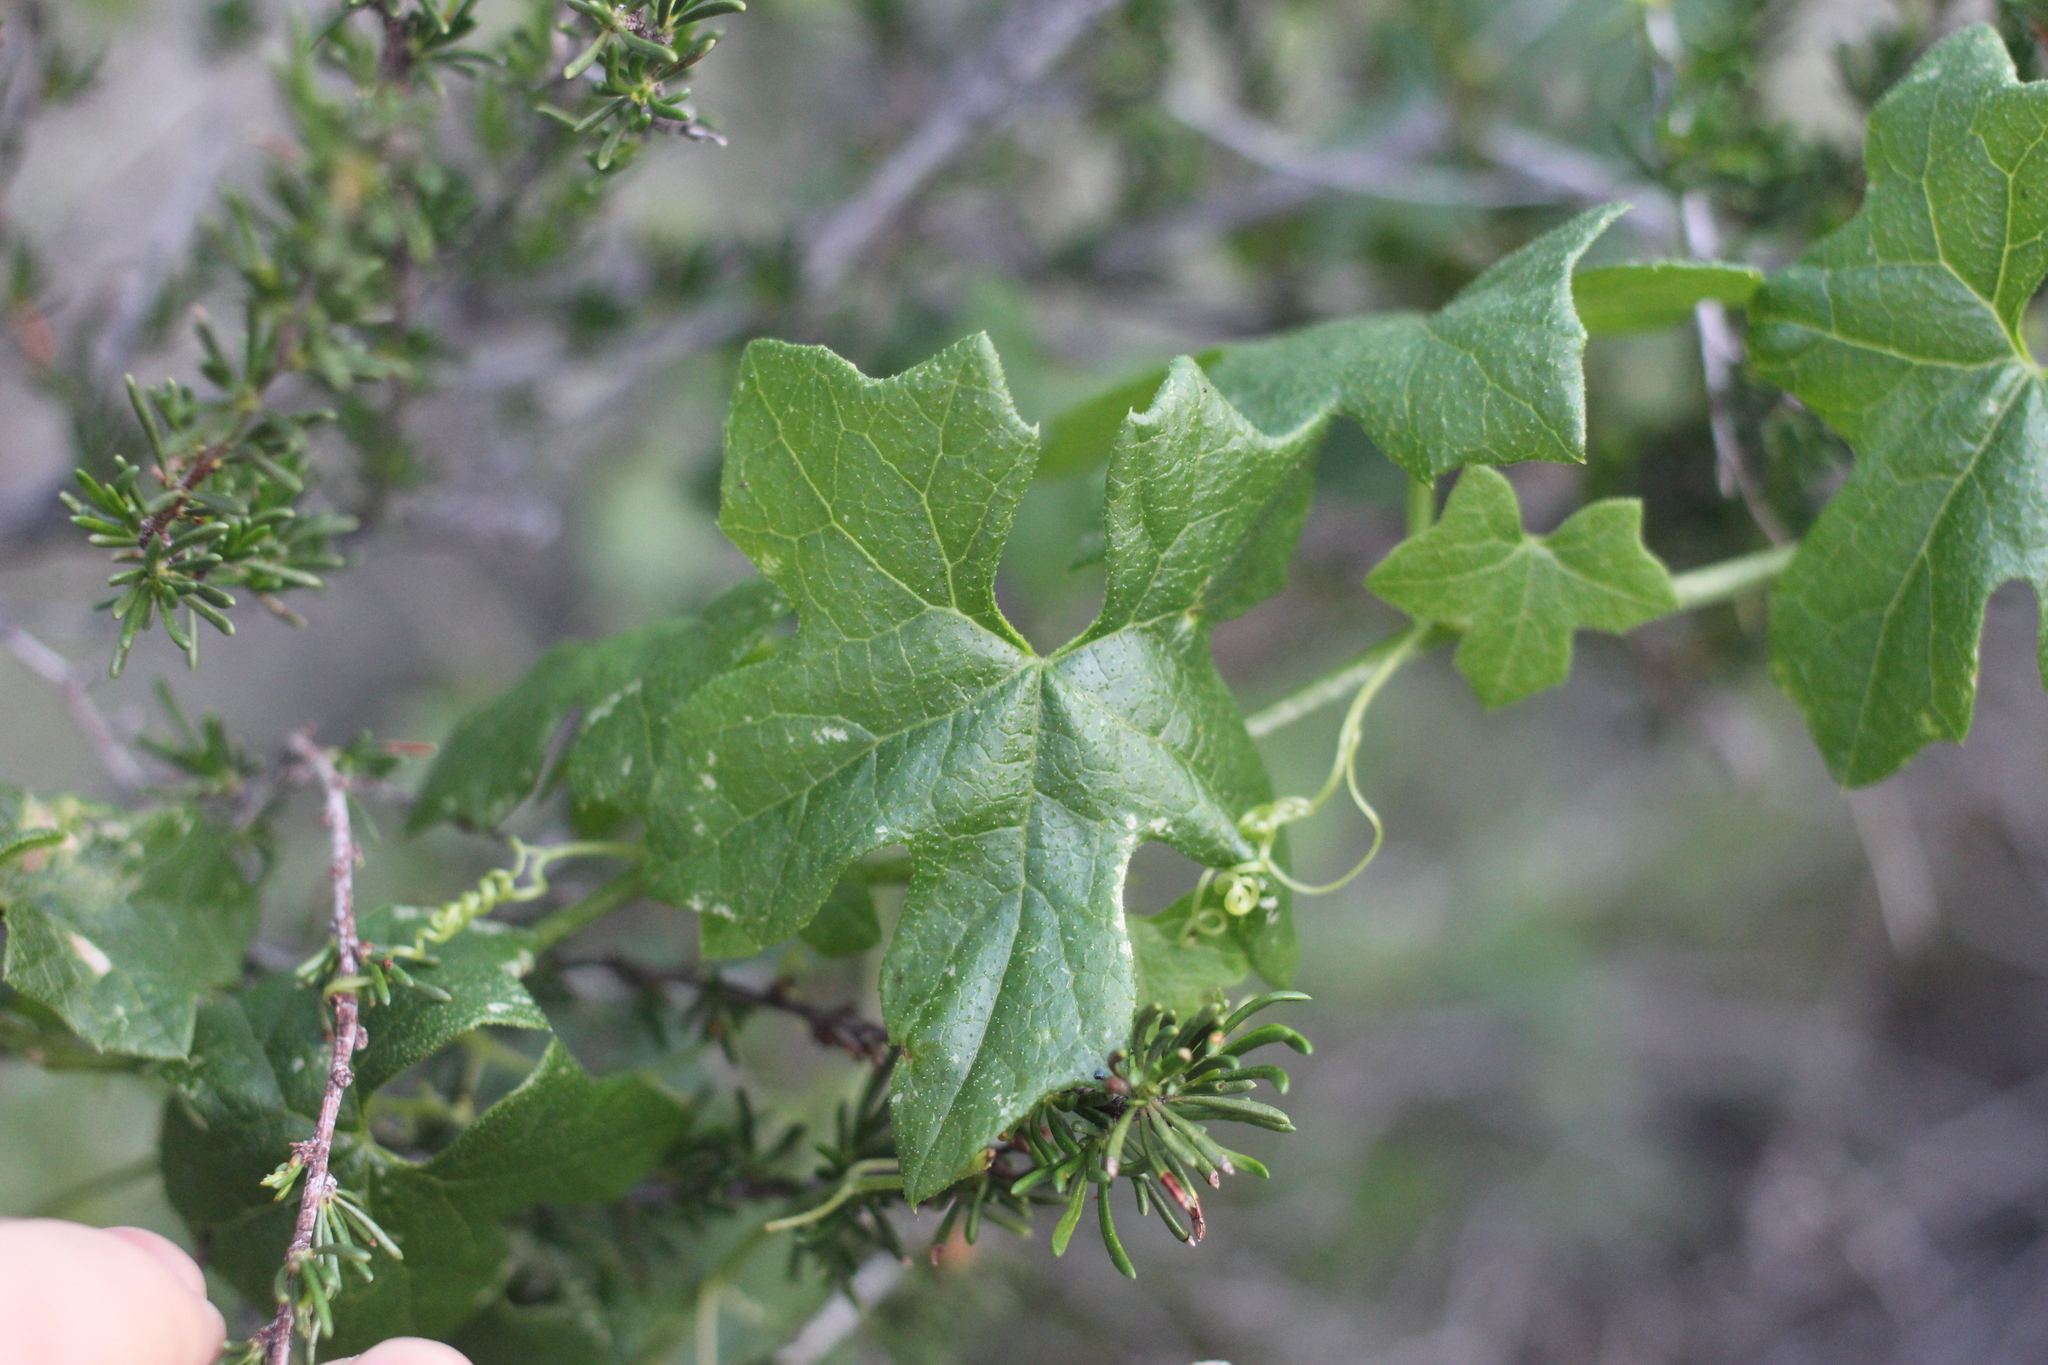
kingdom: Plantae
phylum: Tracheophyta
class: Magnoliopsida
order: Cucurbitales
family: Cucurbitaceae
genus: Marah
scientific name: Marah macrocarpa
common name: Cucamonga manroot
